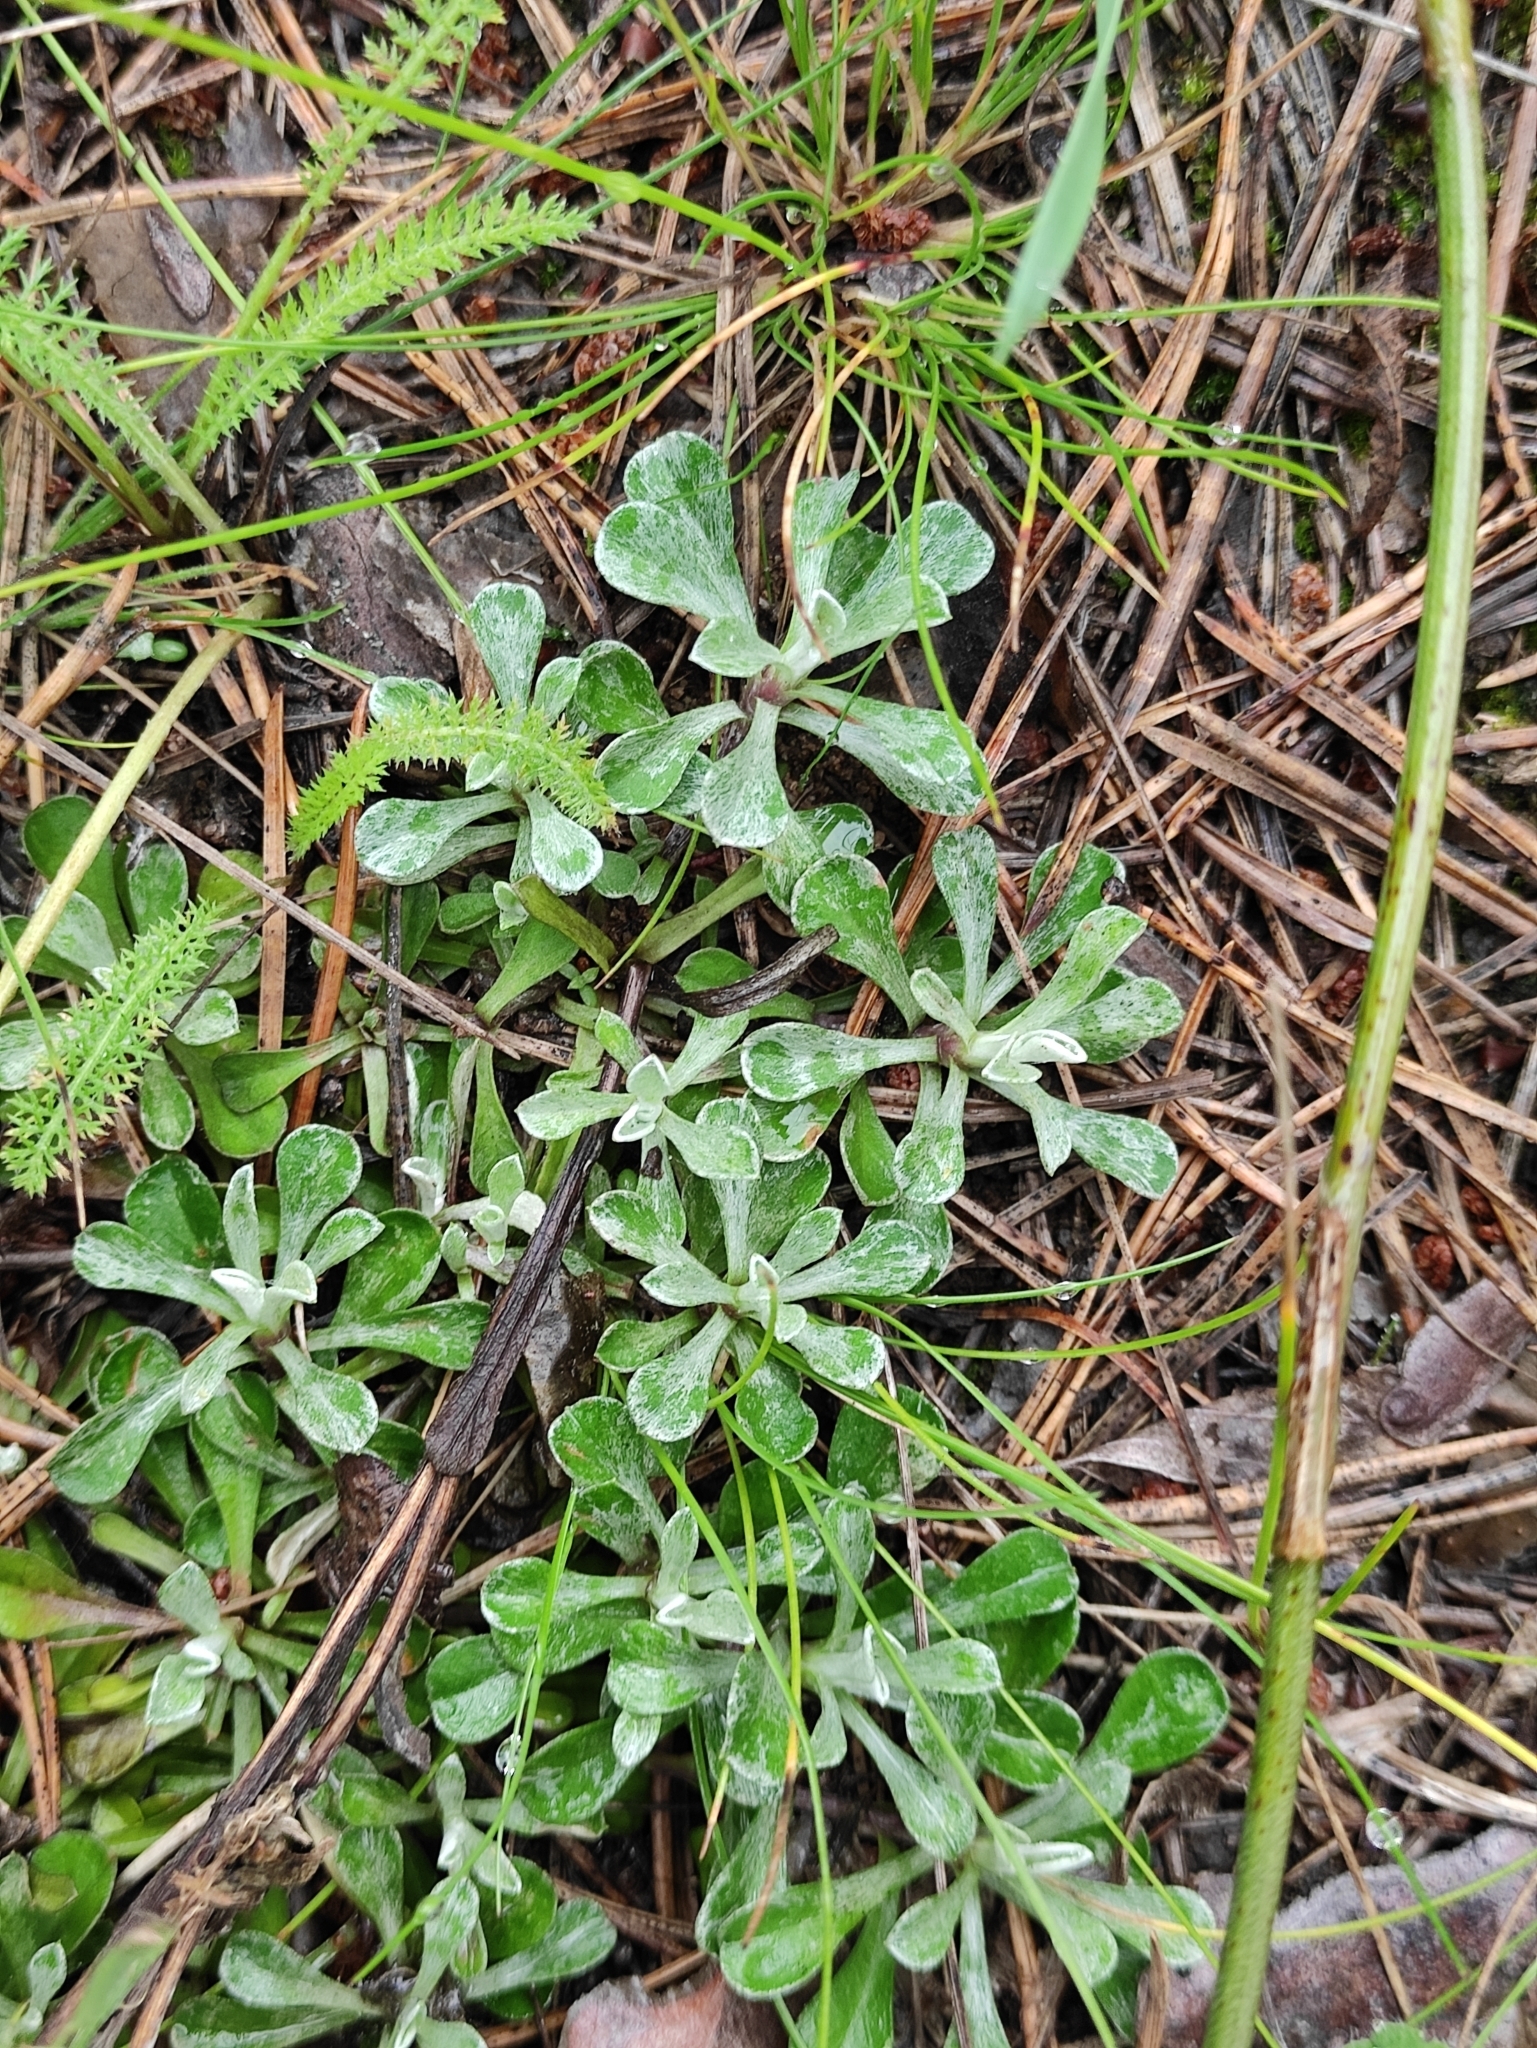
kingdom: Plantae
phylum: Tracheophyta
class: Magnoliopsida
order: Asterales
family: Asteraceae
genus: Antennaria
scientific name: Antennaria dioica
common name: Mountain everlasting
